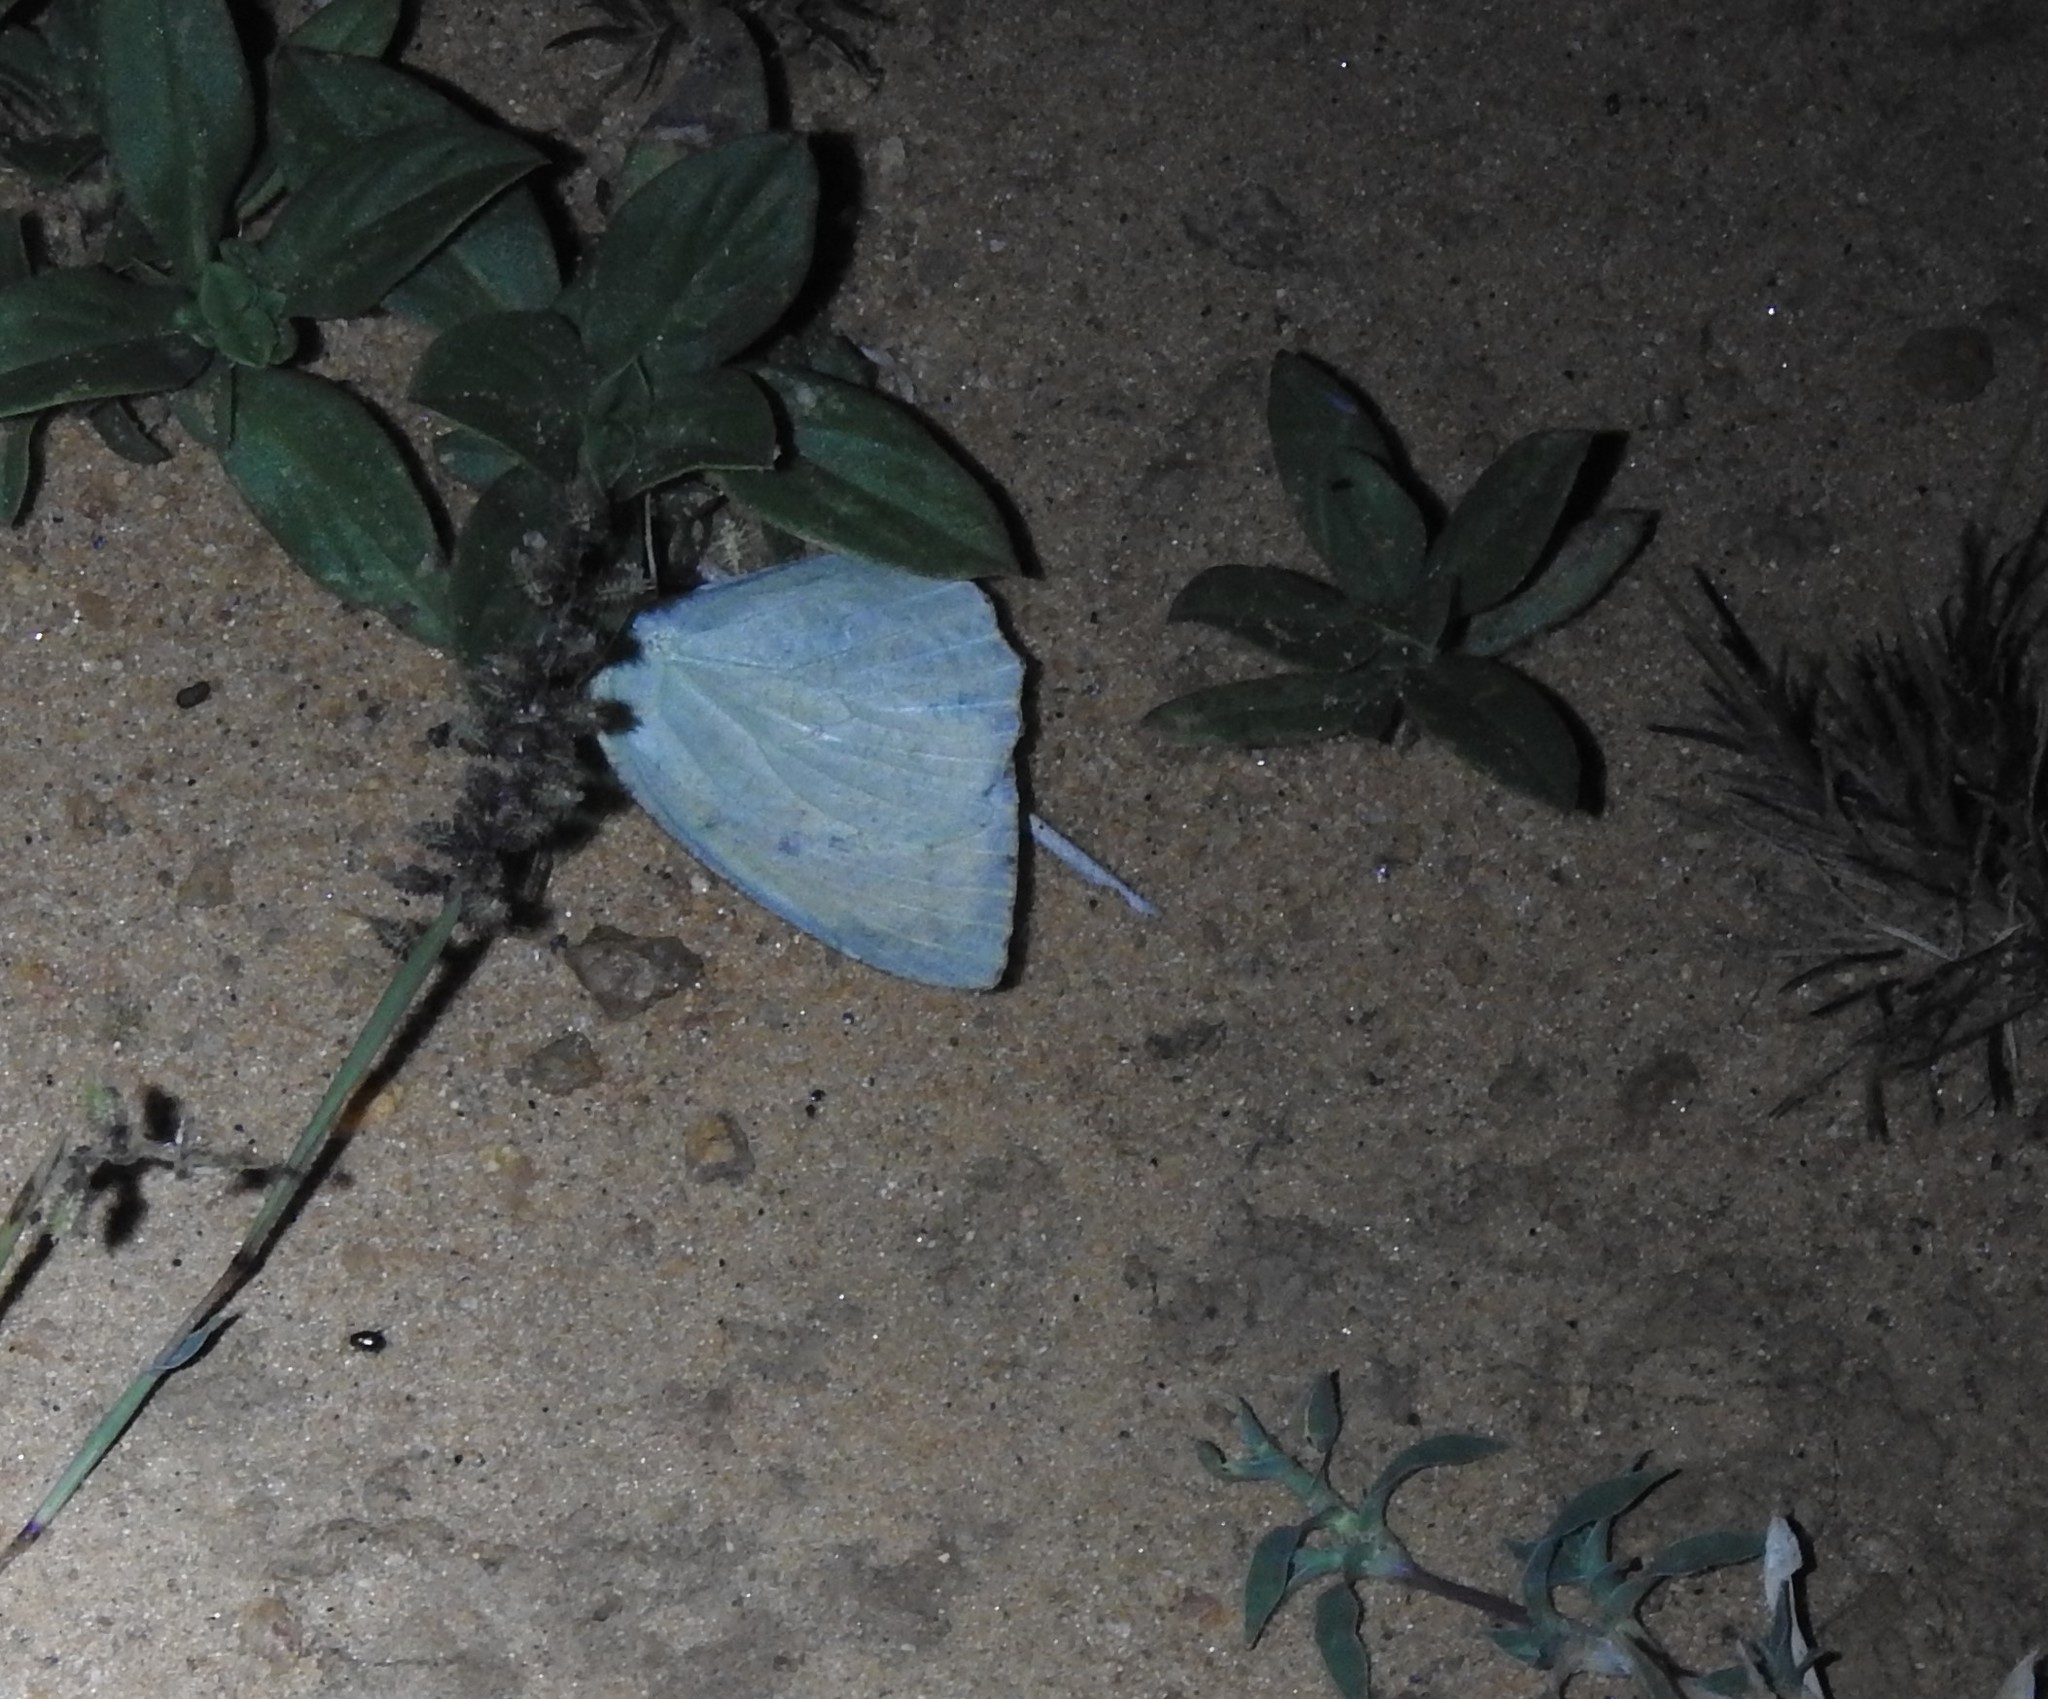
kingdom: Animalia
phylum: Arthropoda
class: Insecta
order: Lepidoptera
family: Pieridae
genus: Catopsilia
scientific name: Catopsilia pyranthe
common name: Mottled emigrant
